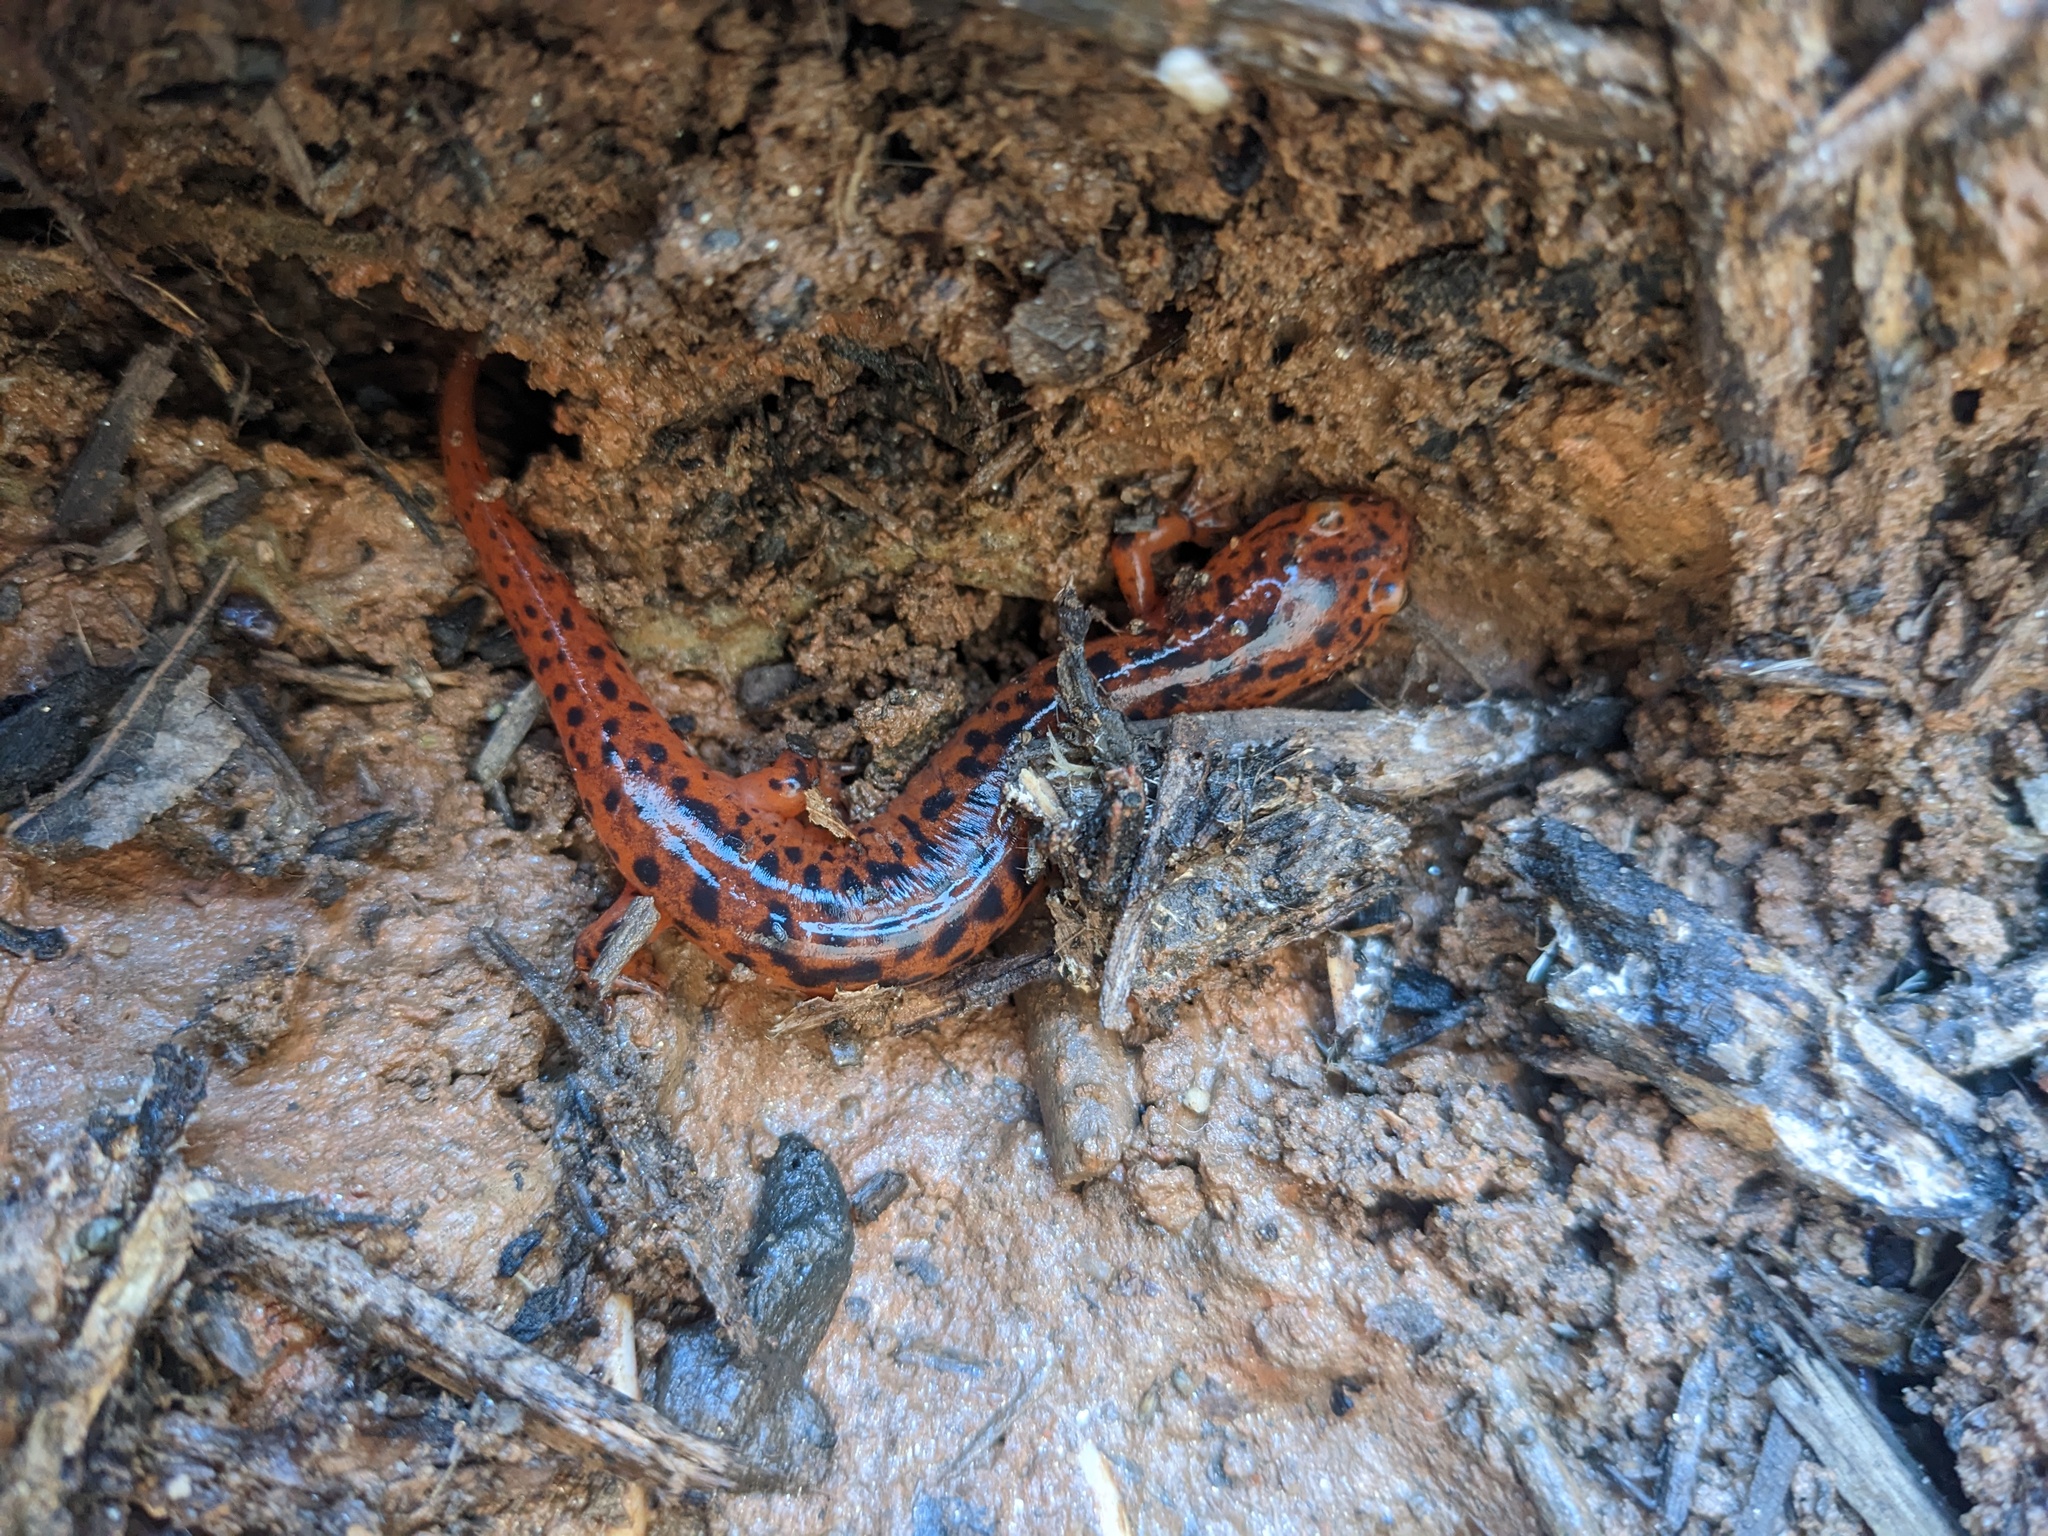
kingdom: Animalia
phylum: Chordata
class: Amphibia
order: Caudata
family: Plethodontidae
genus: Pseudotriton
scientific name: Pseudotriton ruber
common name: Red salamander
